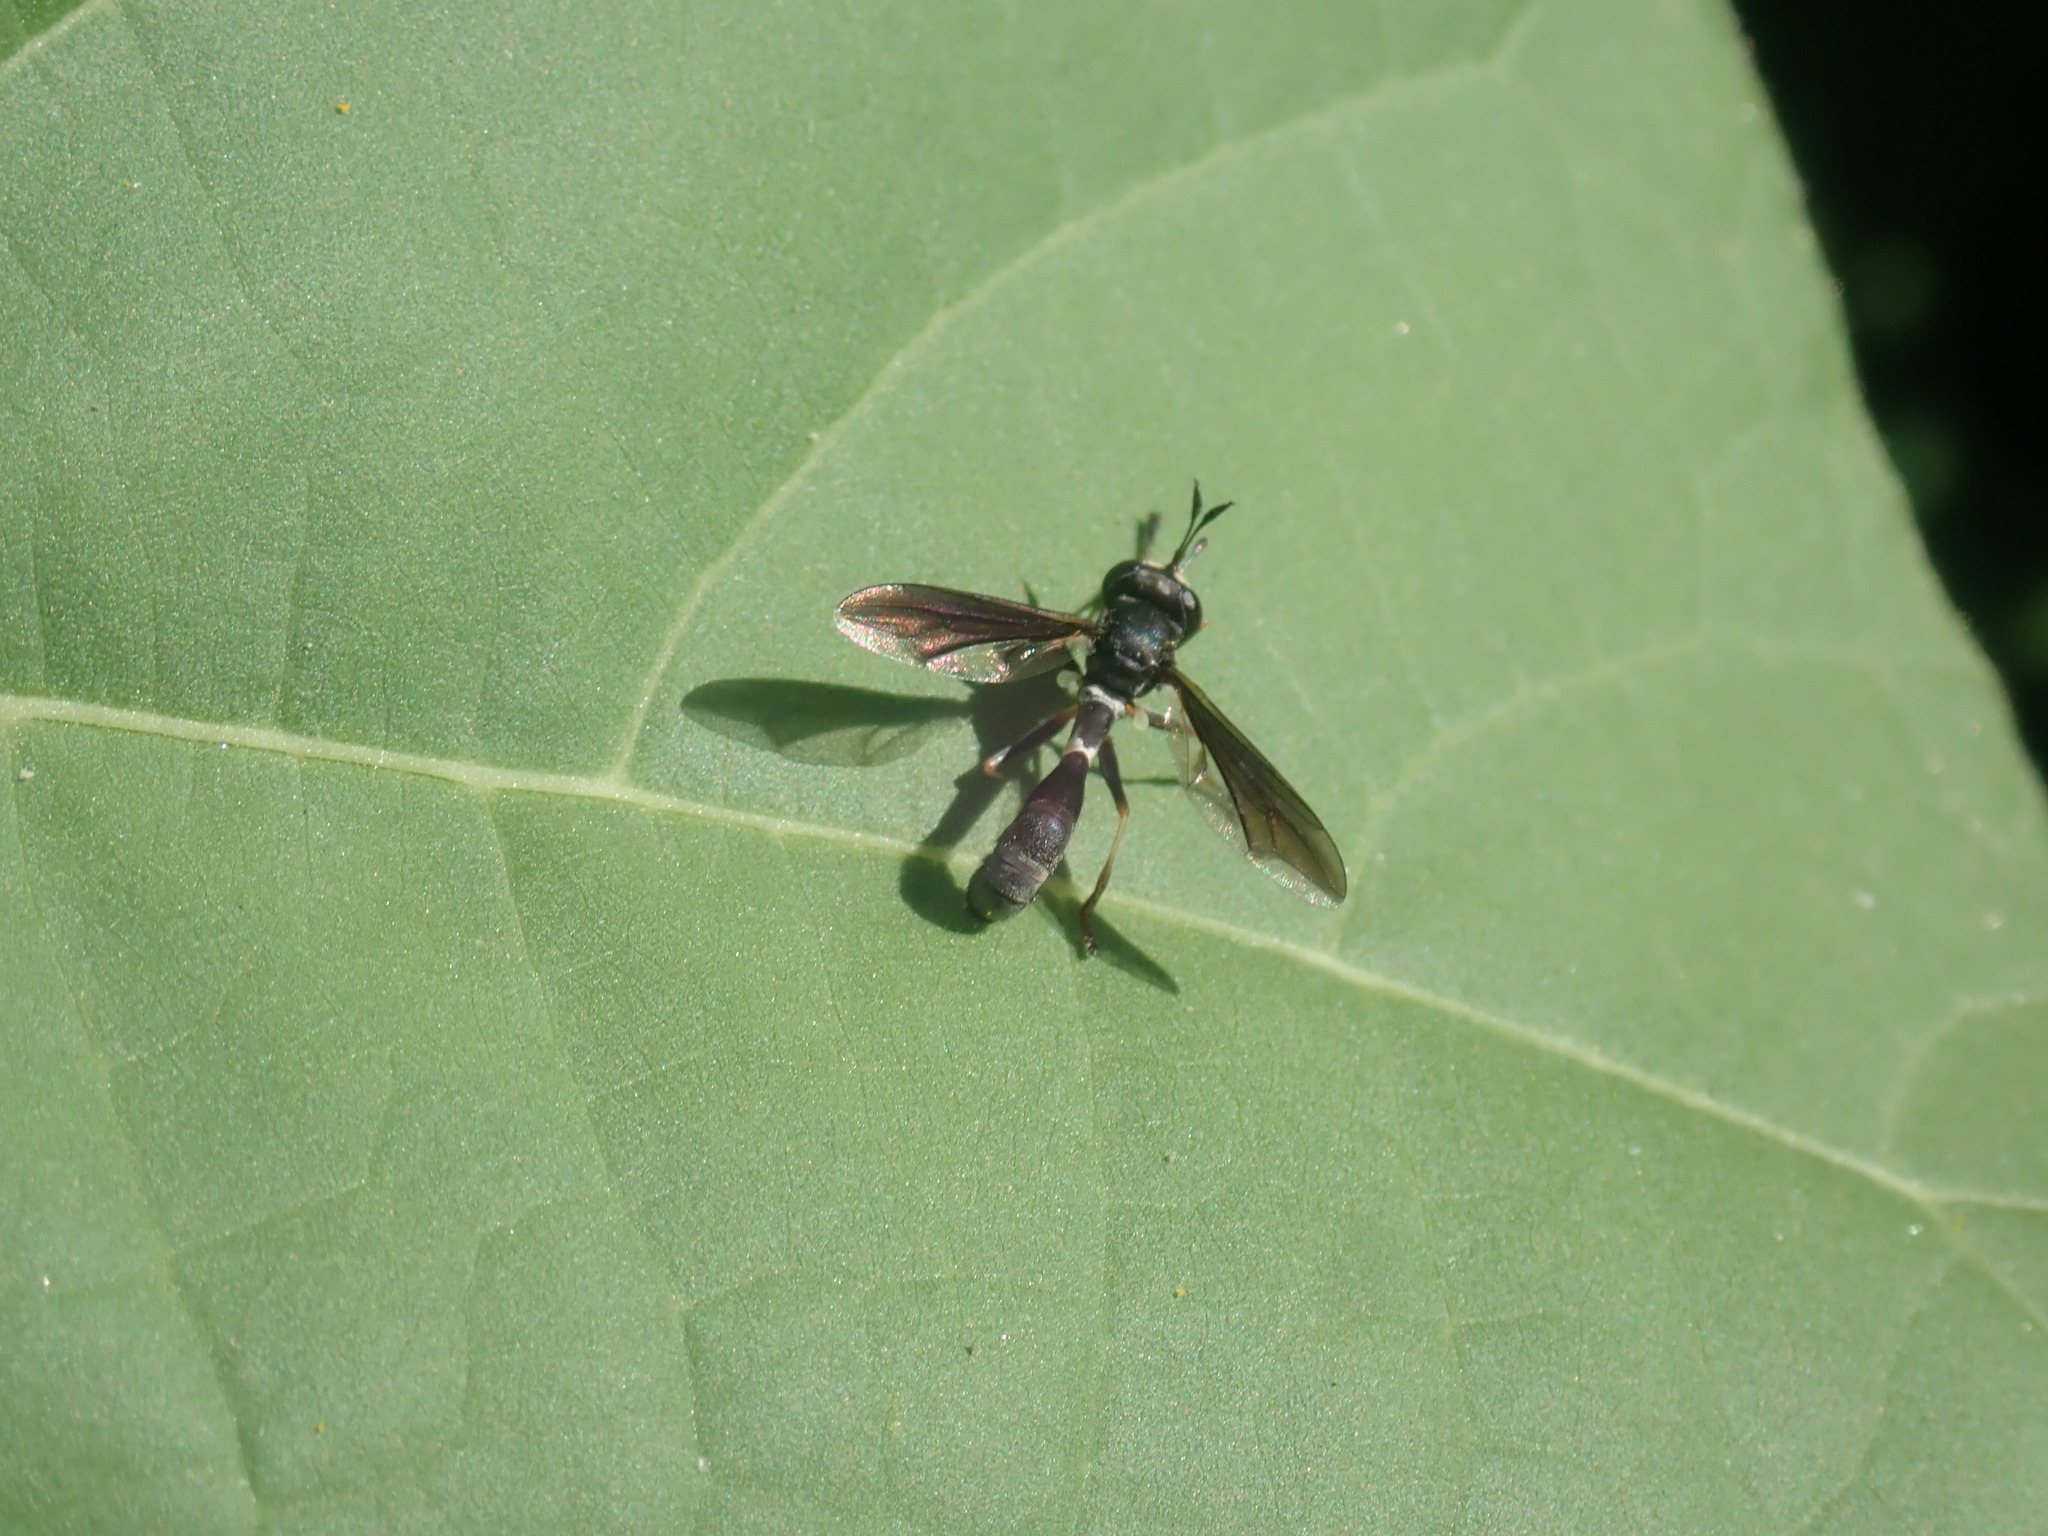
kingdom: Animalia
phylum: Arthropoda
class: Insecta
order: Diptera
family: Conopidae
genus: Physocephala
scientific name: Physocephala tibialis
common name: Common eastern physocephala
